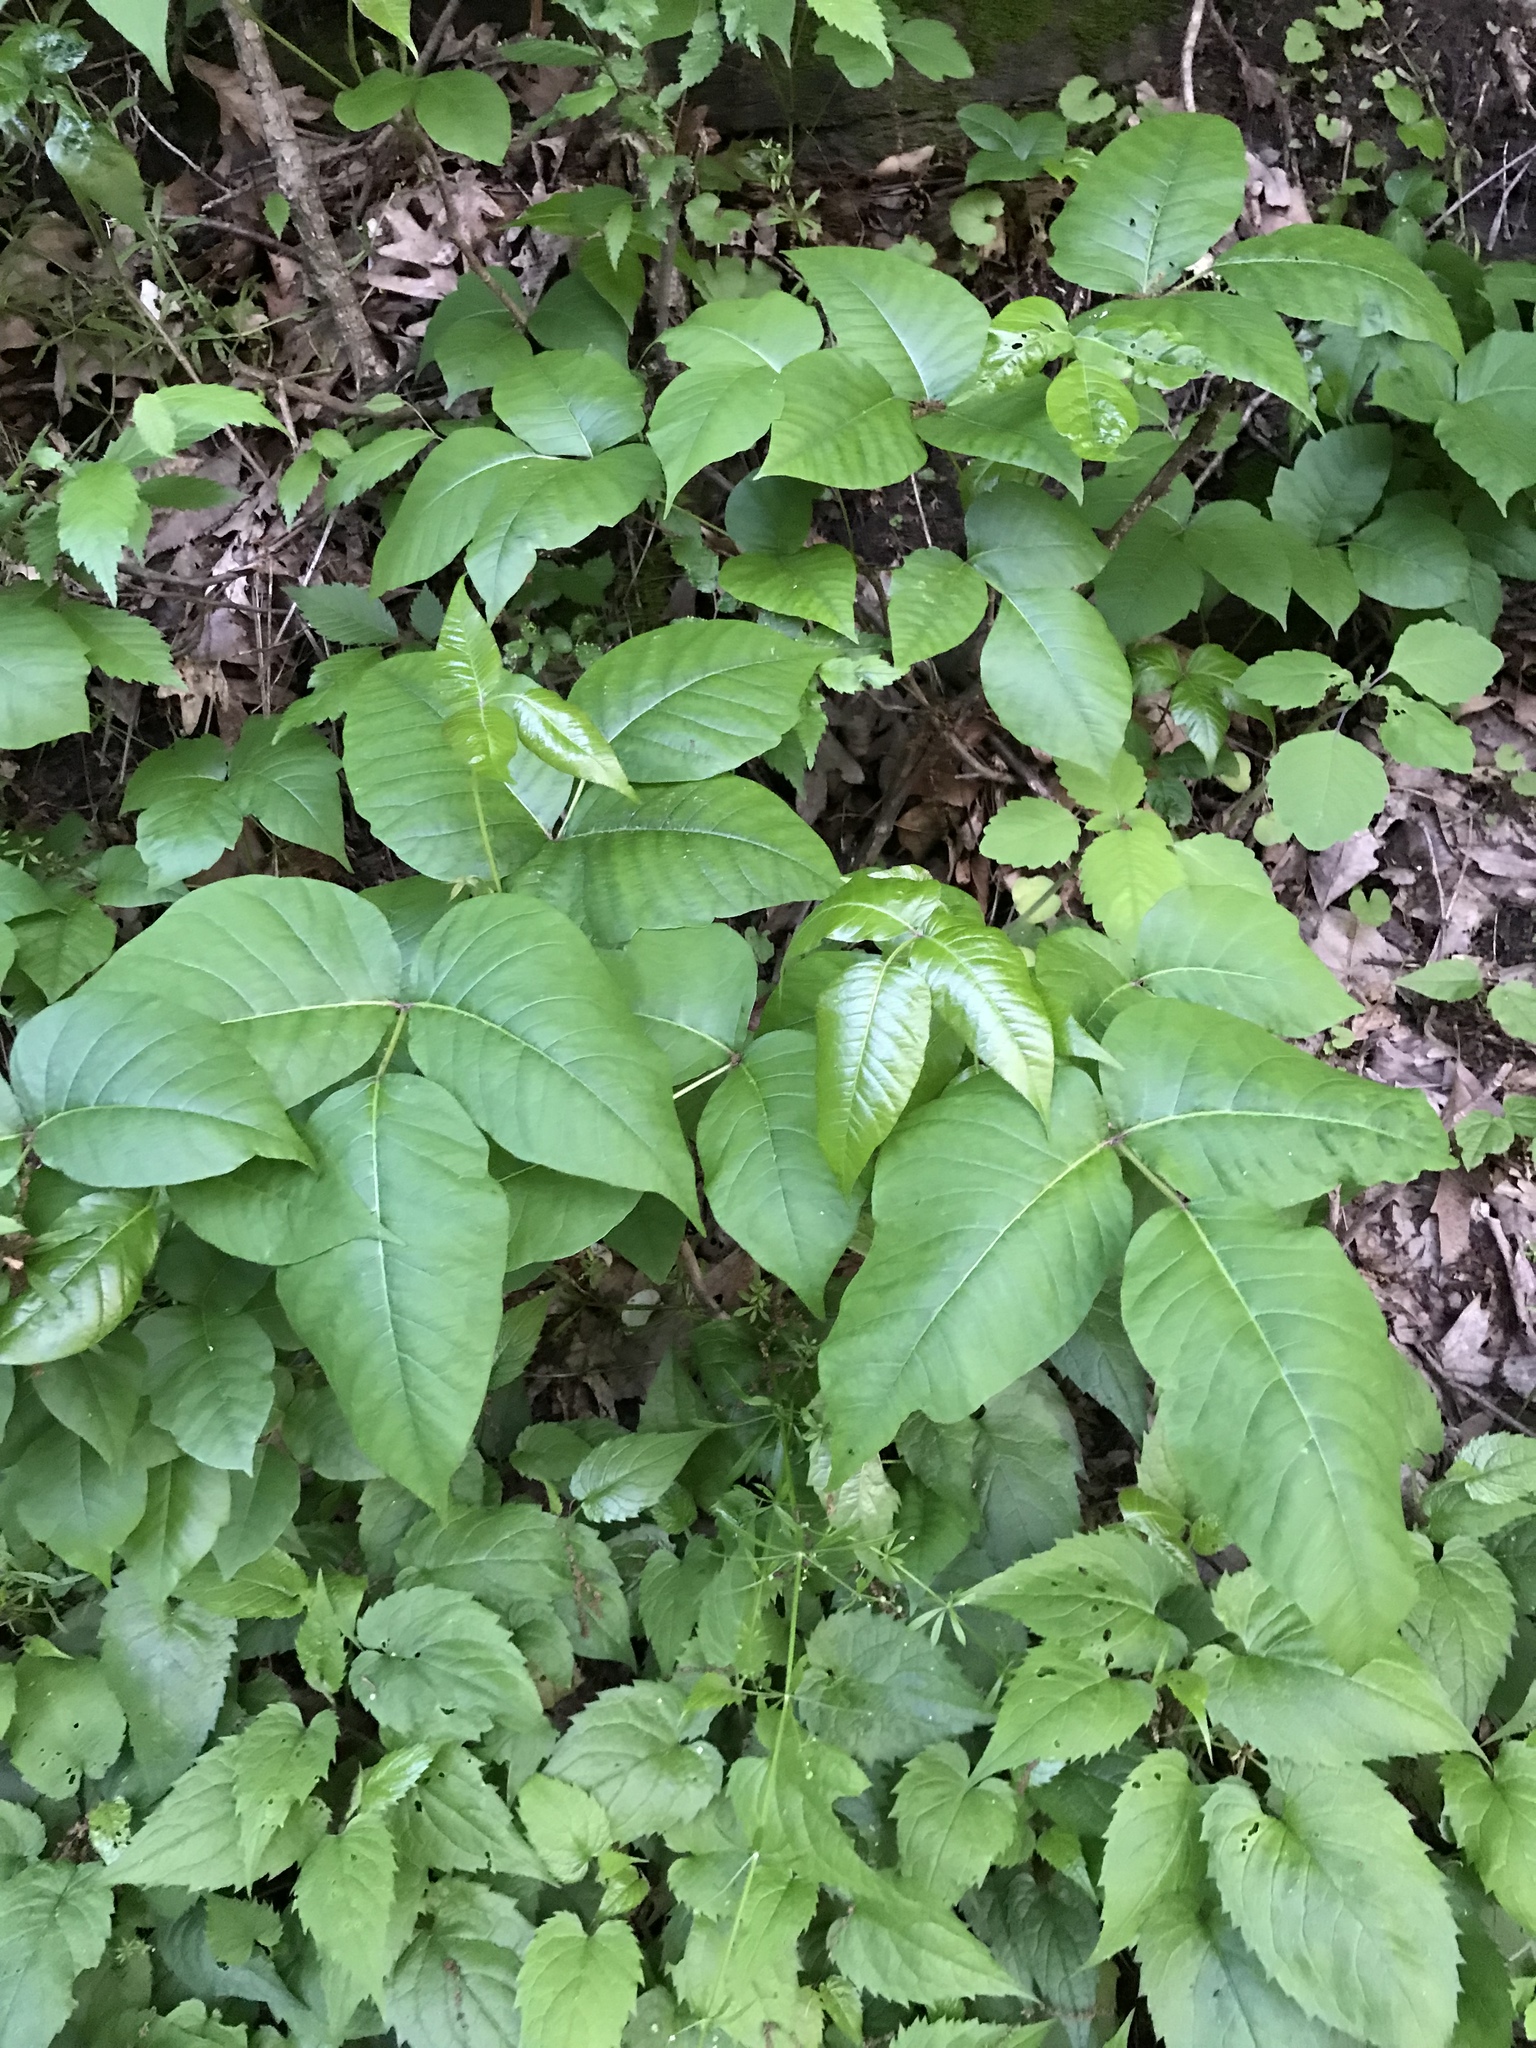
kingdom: Plantae
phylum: Tracheophyta
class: Magnoliopsida
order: Sapindales
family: Anacardiaceae
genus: Toxicodendron
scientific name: Toxicodendron radicans
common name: Poison ivy
